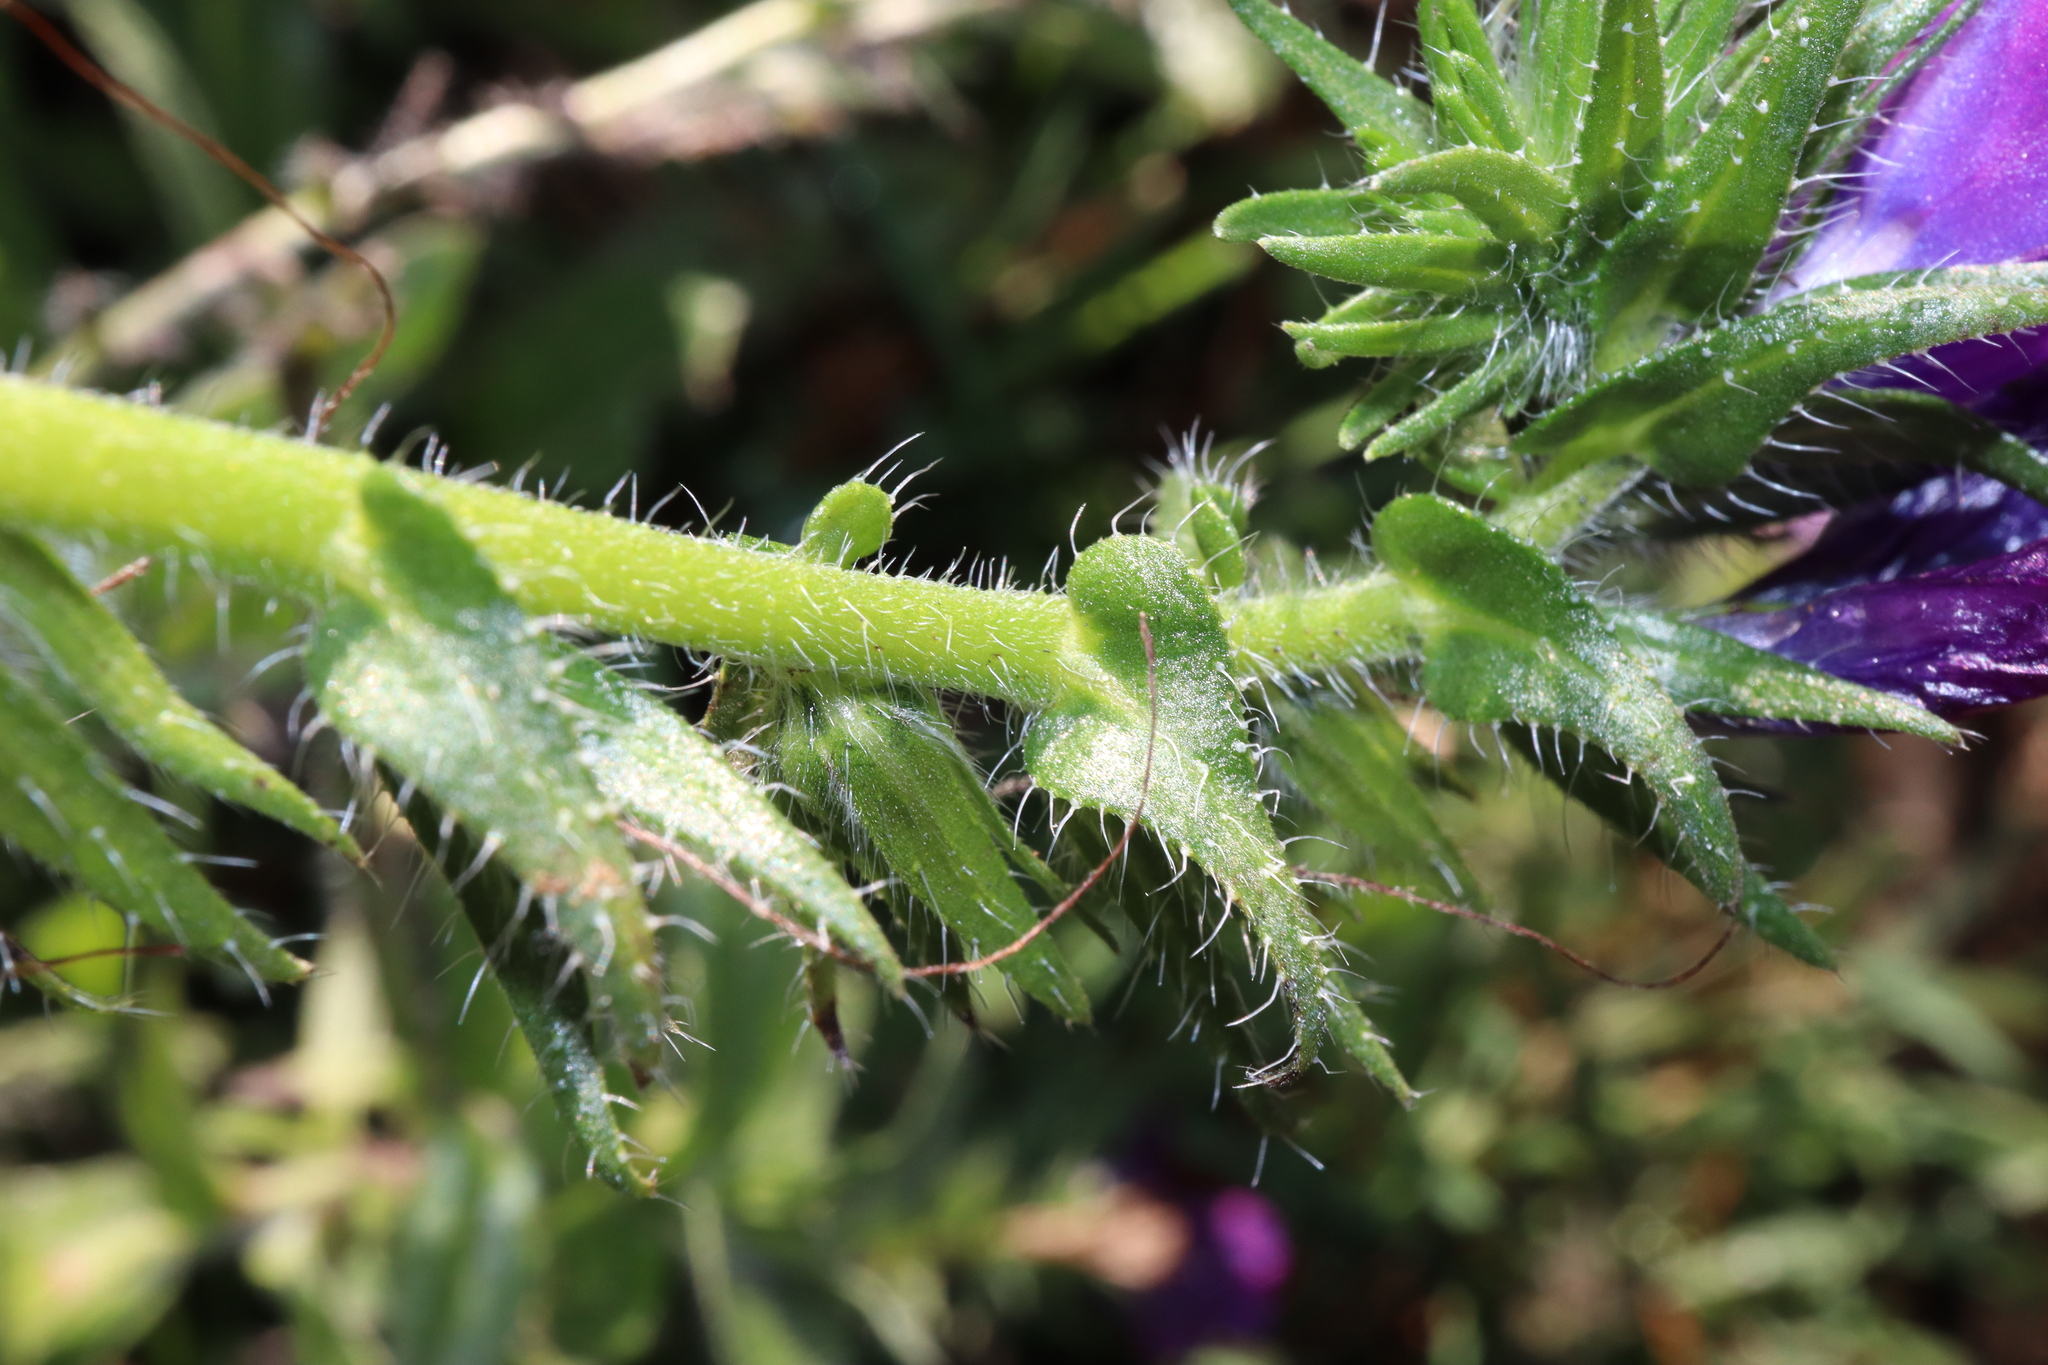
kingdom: Plantae
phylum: Tracheophyta
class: Magnoliopsida
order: Boraginales
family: Boraginaceae
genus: Echium
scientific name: Echium plantagineum
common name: Purple viper's-bugloss
